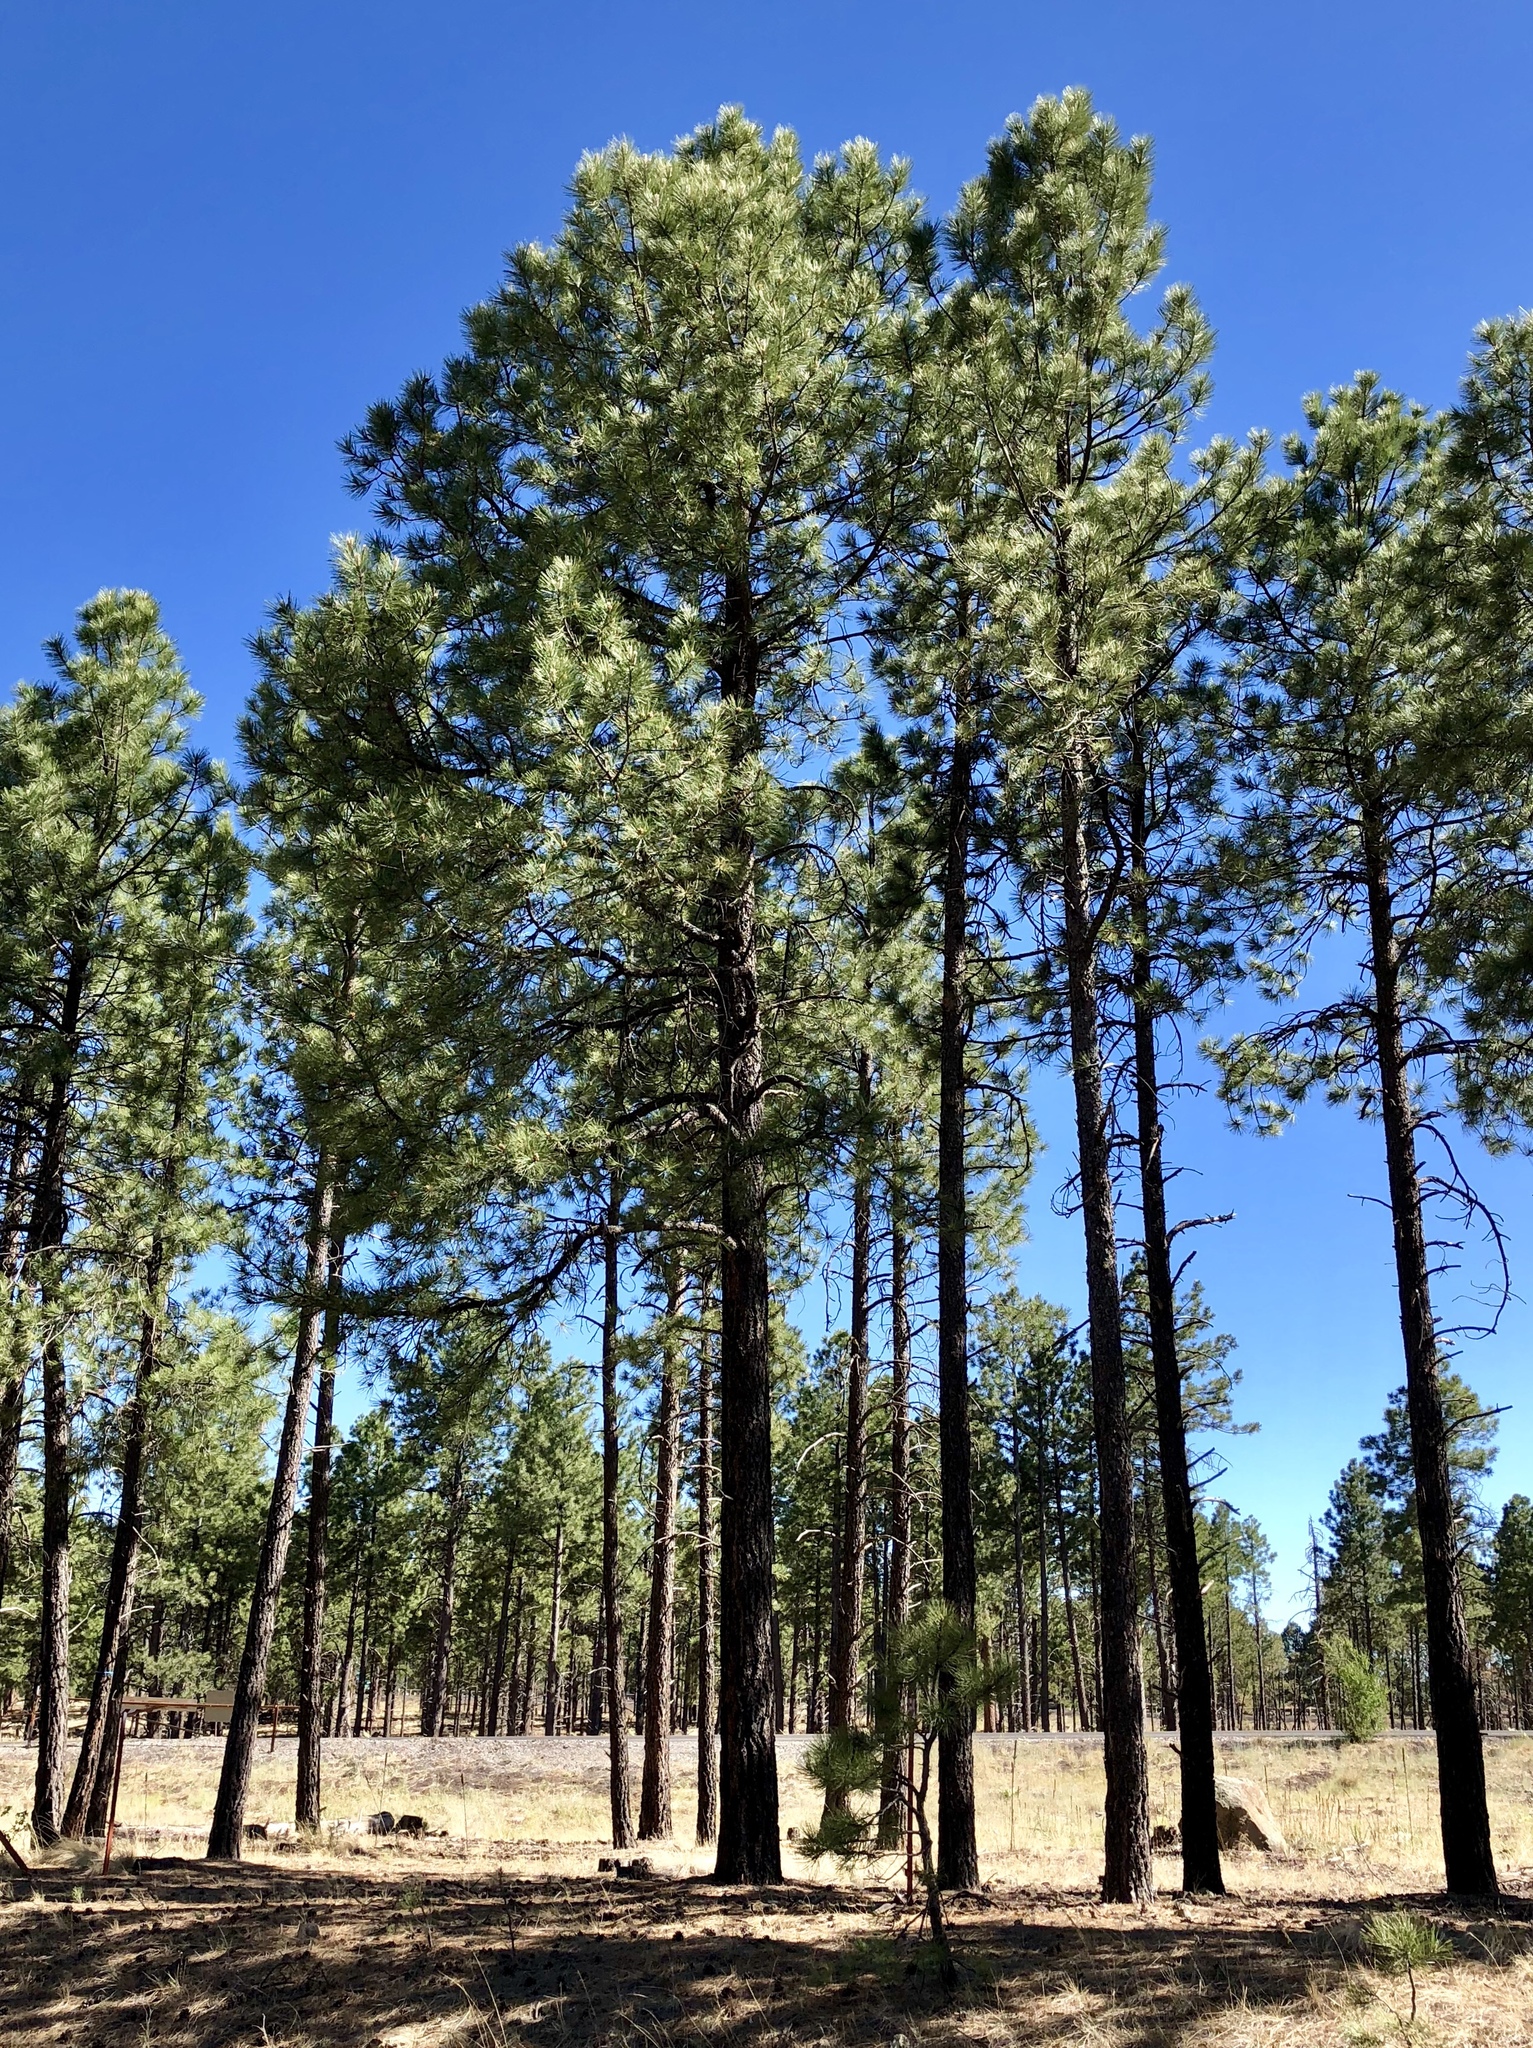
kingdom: Plantae
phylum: Tracheophyta
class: Pinopsida
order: Pinales
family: Pinaceae
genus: Pinus
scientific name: Pinus ponderosa
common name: Western yellow-pine
